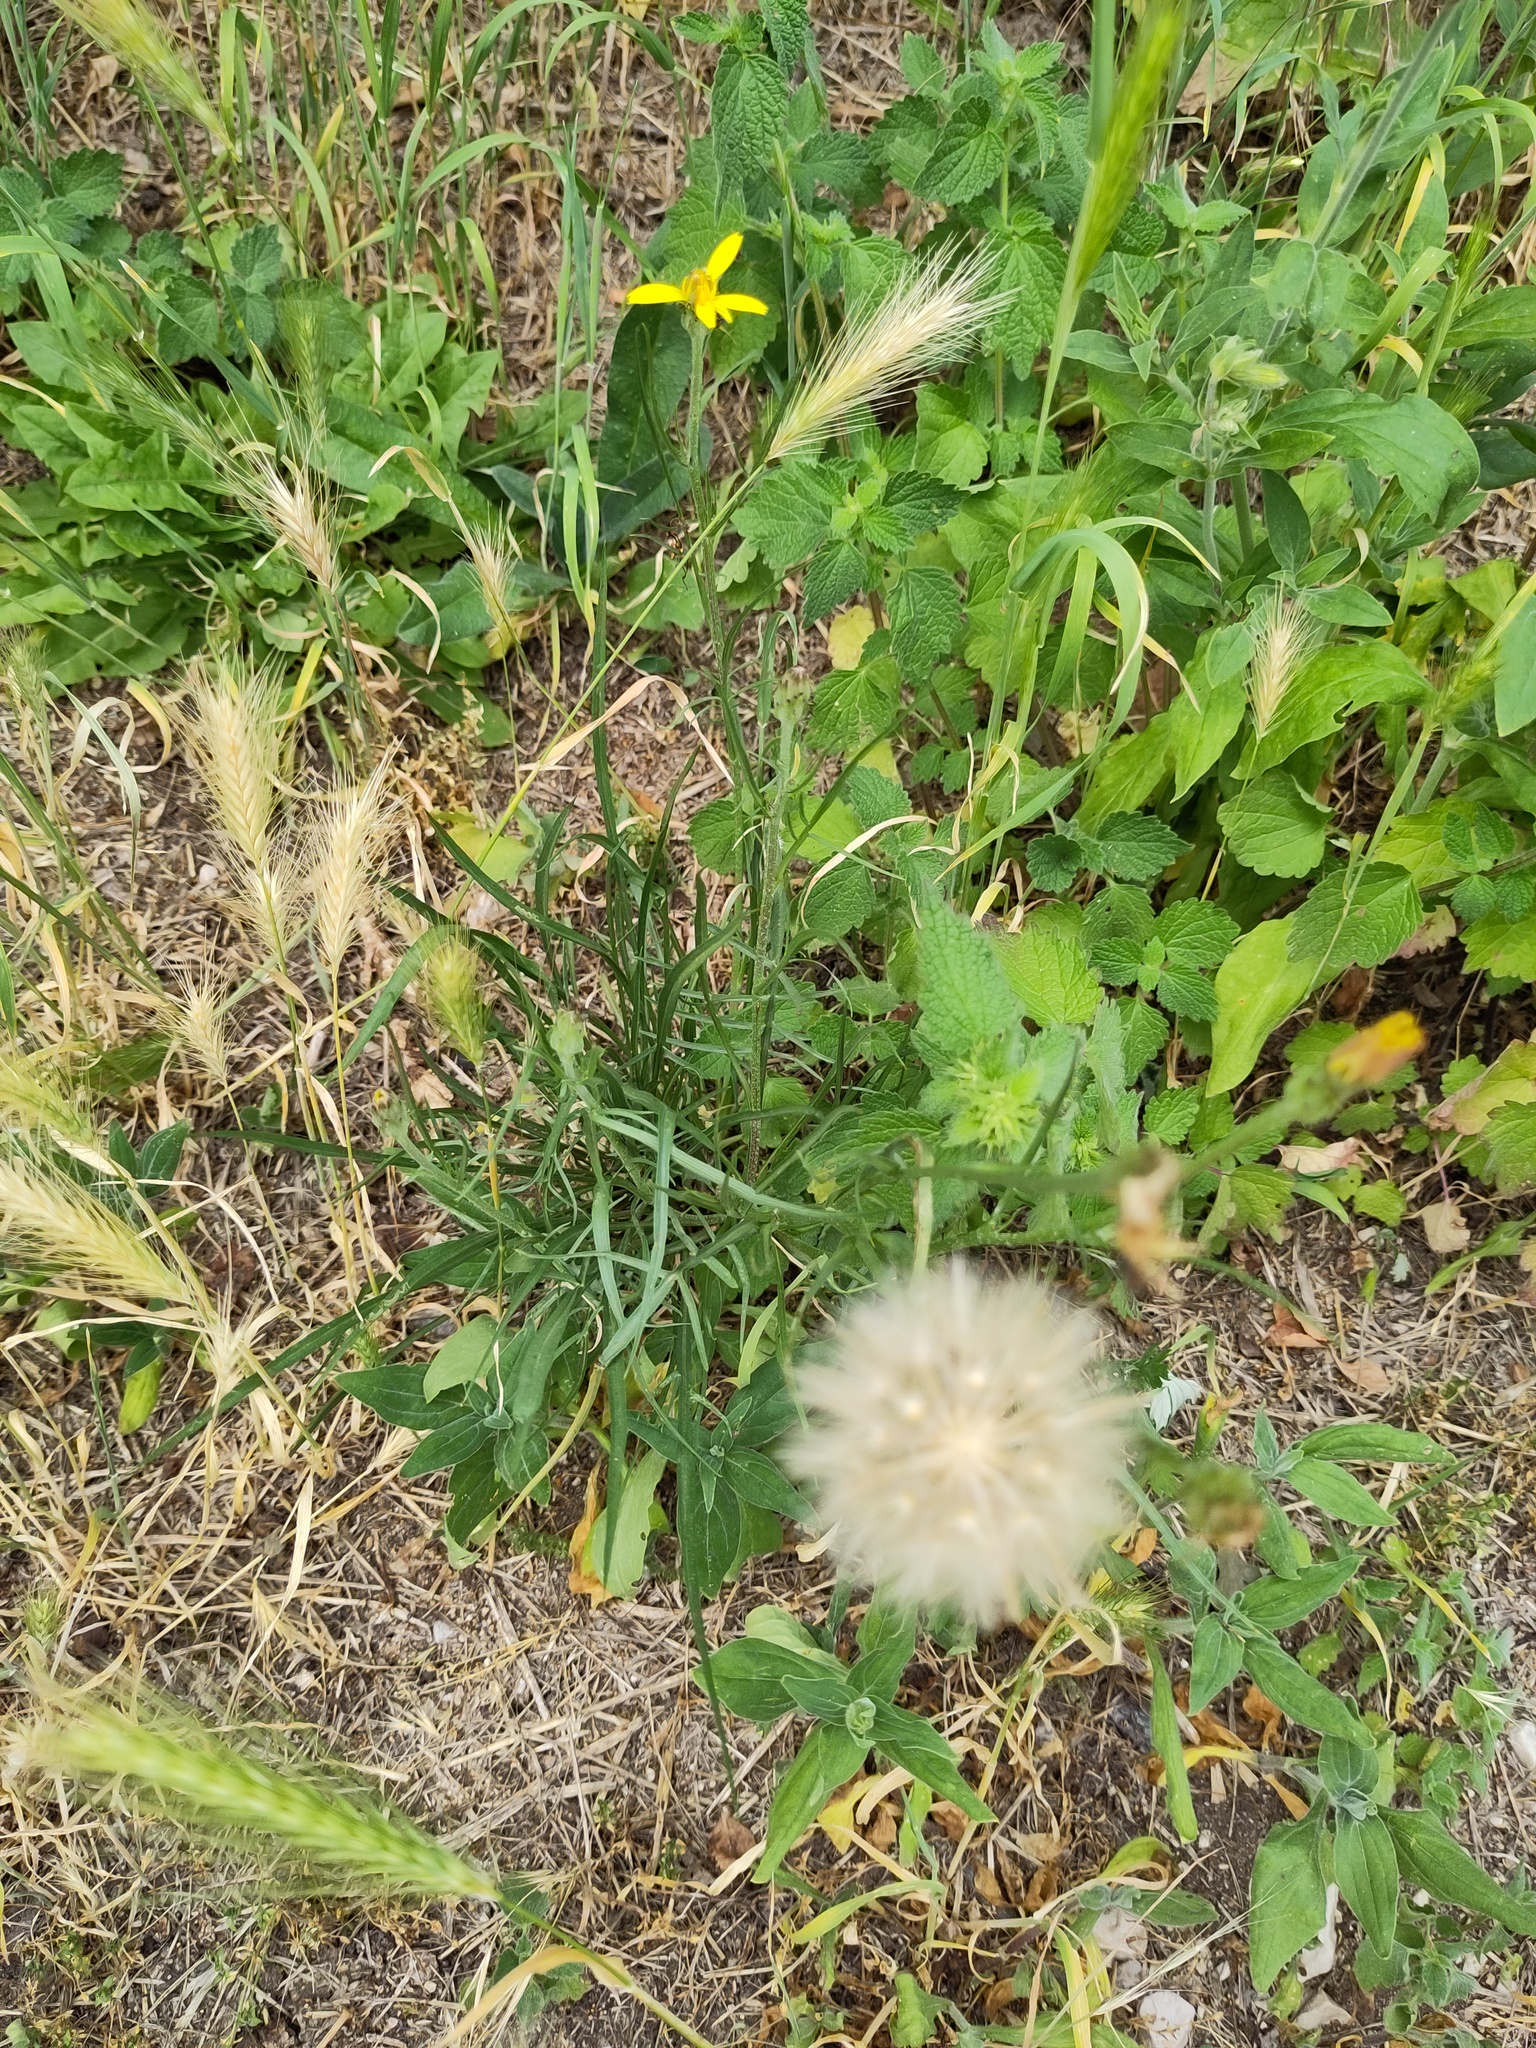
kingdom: Plantae
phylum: Tracheophyta
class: Magnoliopsida
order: Asterales
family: Asteraceae
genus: Scorzonera
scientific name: Scorzonera cana
